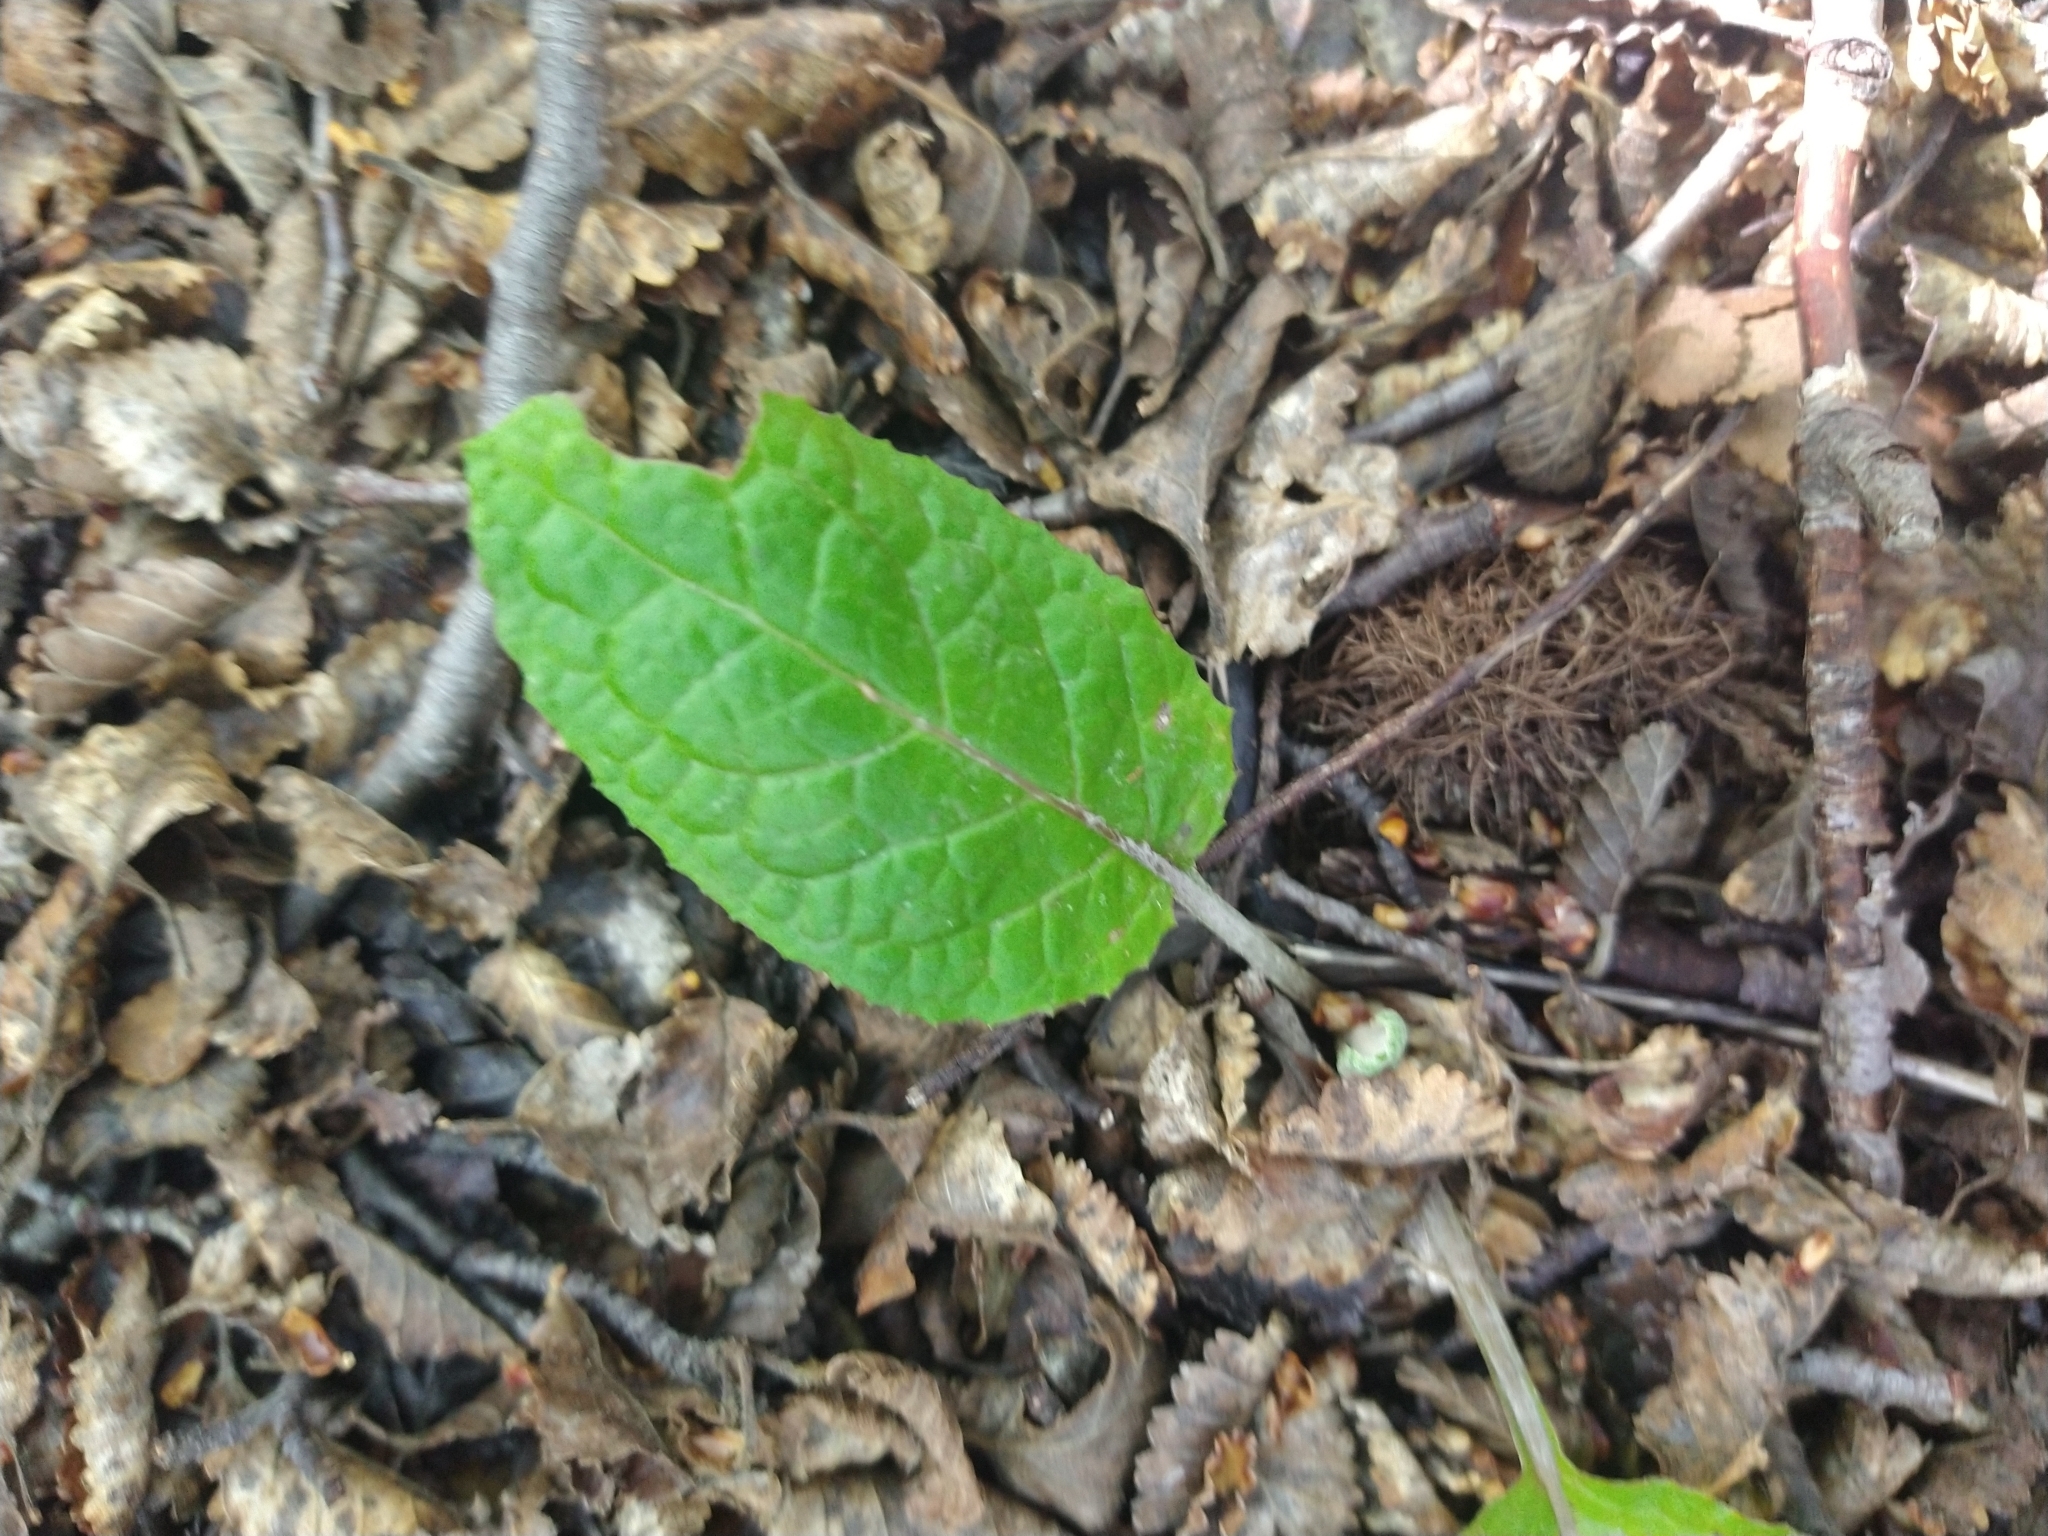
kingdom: Plantae
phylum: Tracheophyta
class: Magnoliopsida
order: Asterales
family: Asteraceae
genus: Adenocaulon
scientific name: Adenocaulon chilense
